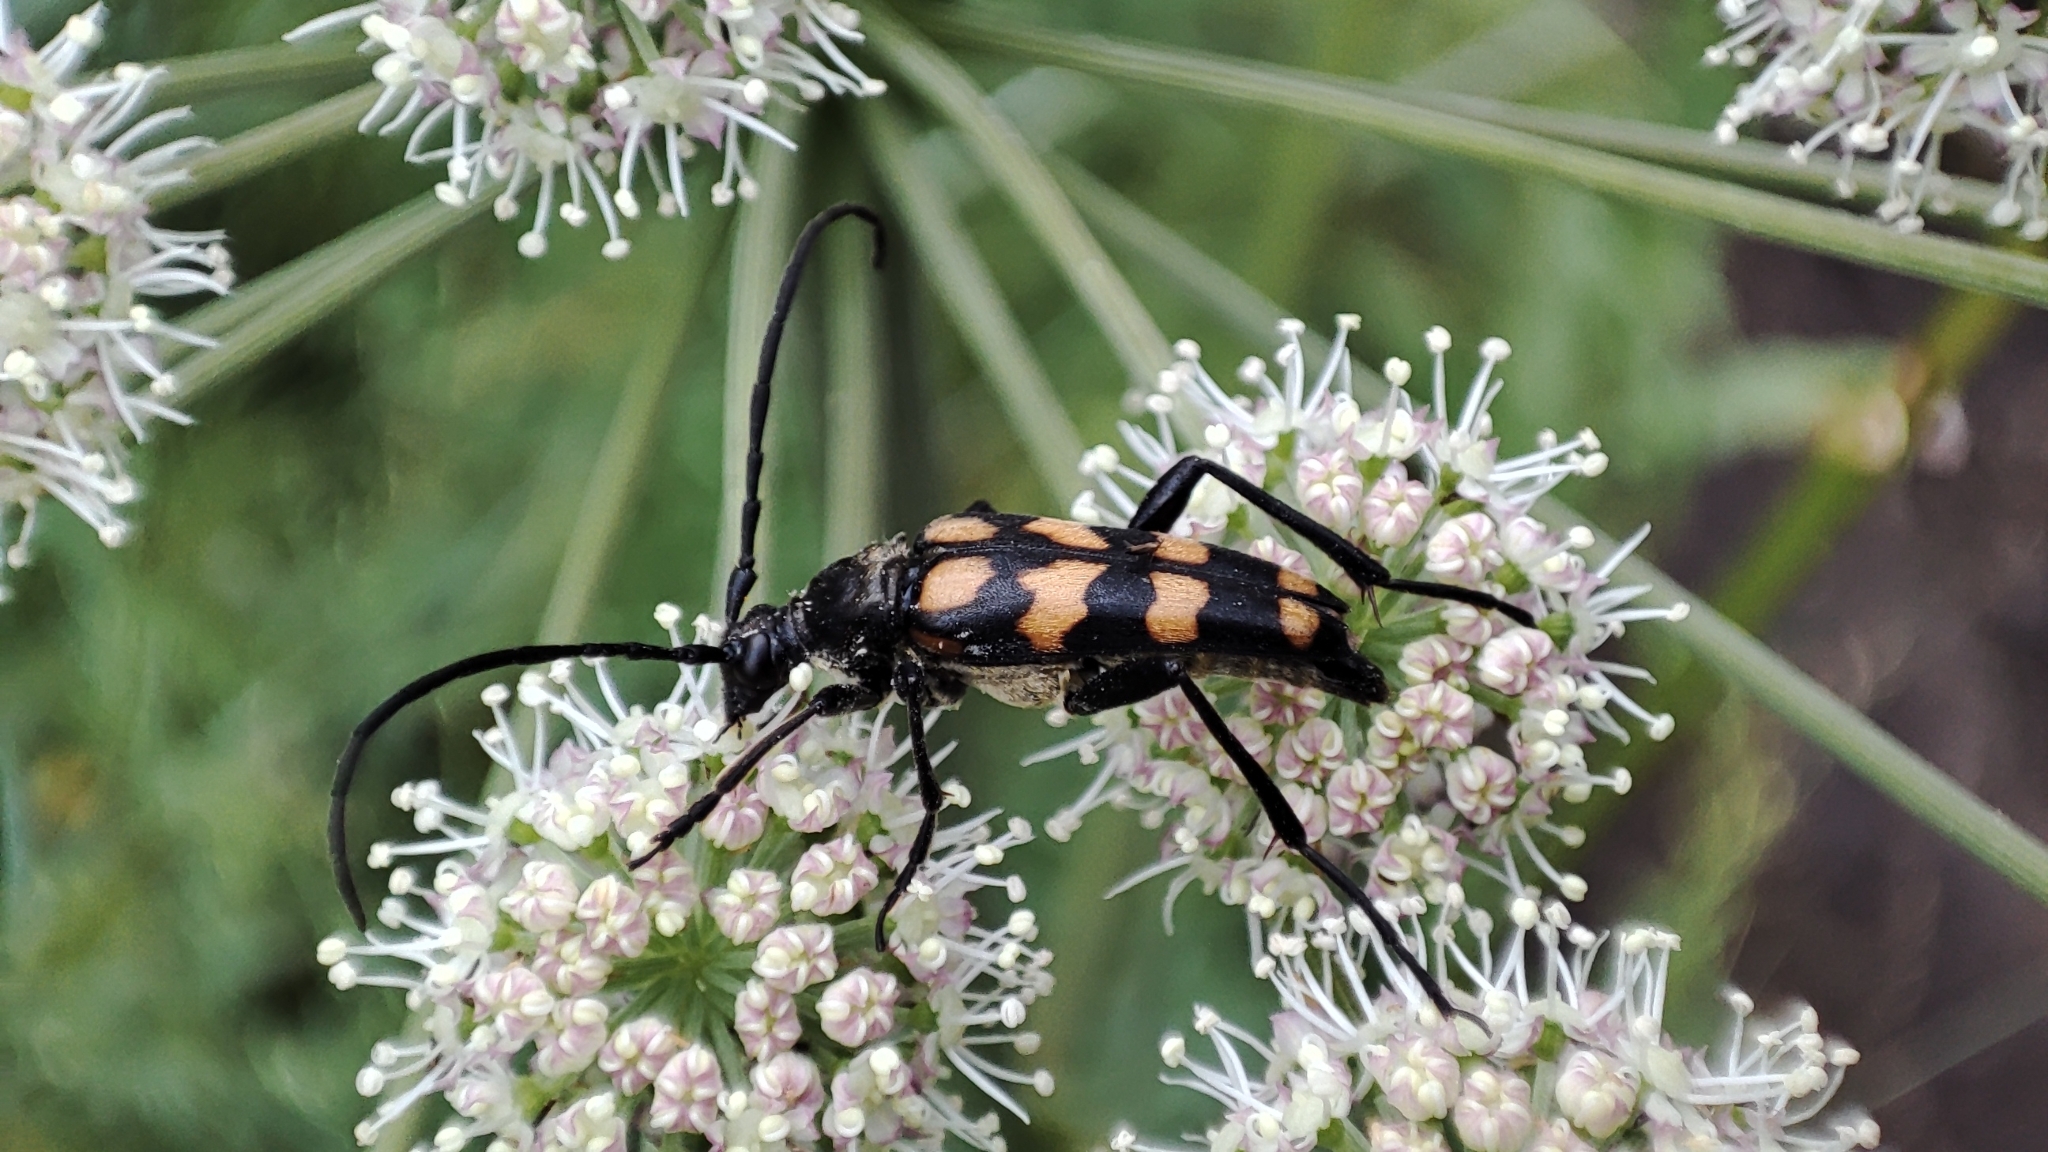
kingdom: Animalia
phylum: Arthropoda
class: Insecta
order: Coleoptera
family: Cerambycidae
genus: Leptura
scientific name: Leptura quadrifasciata
